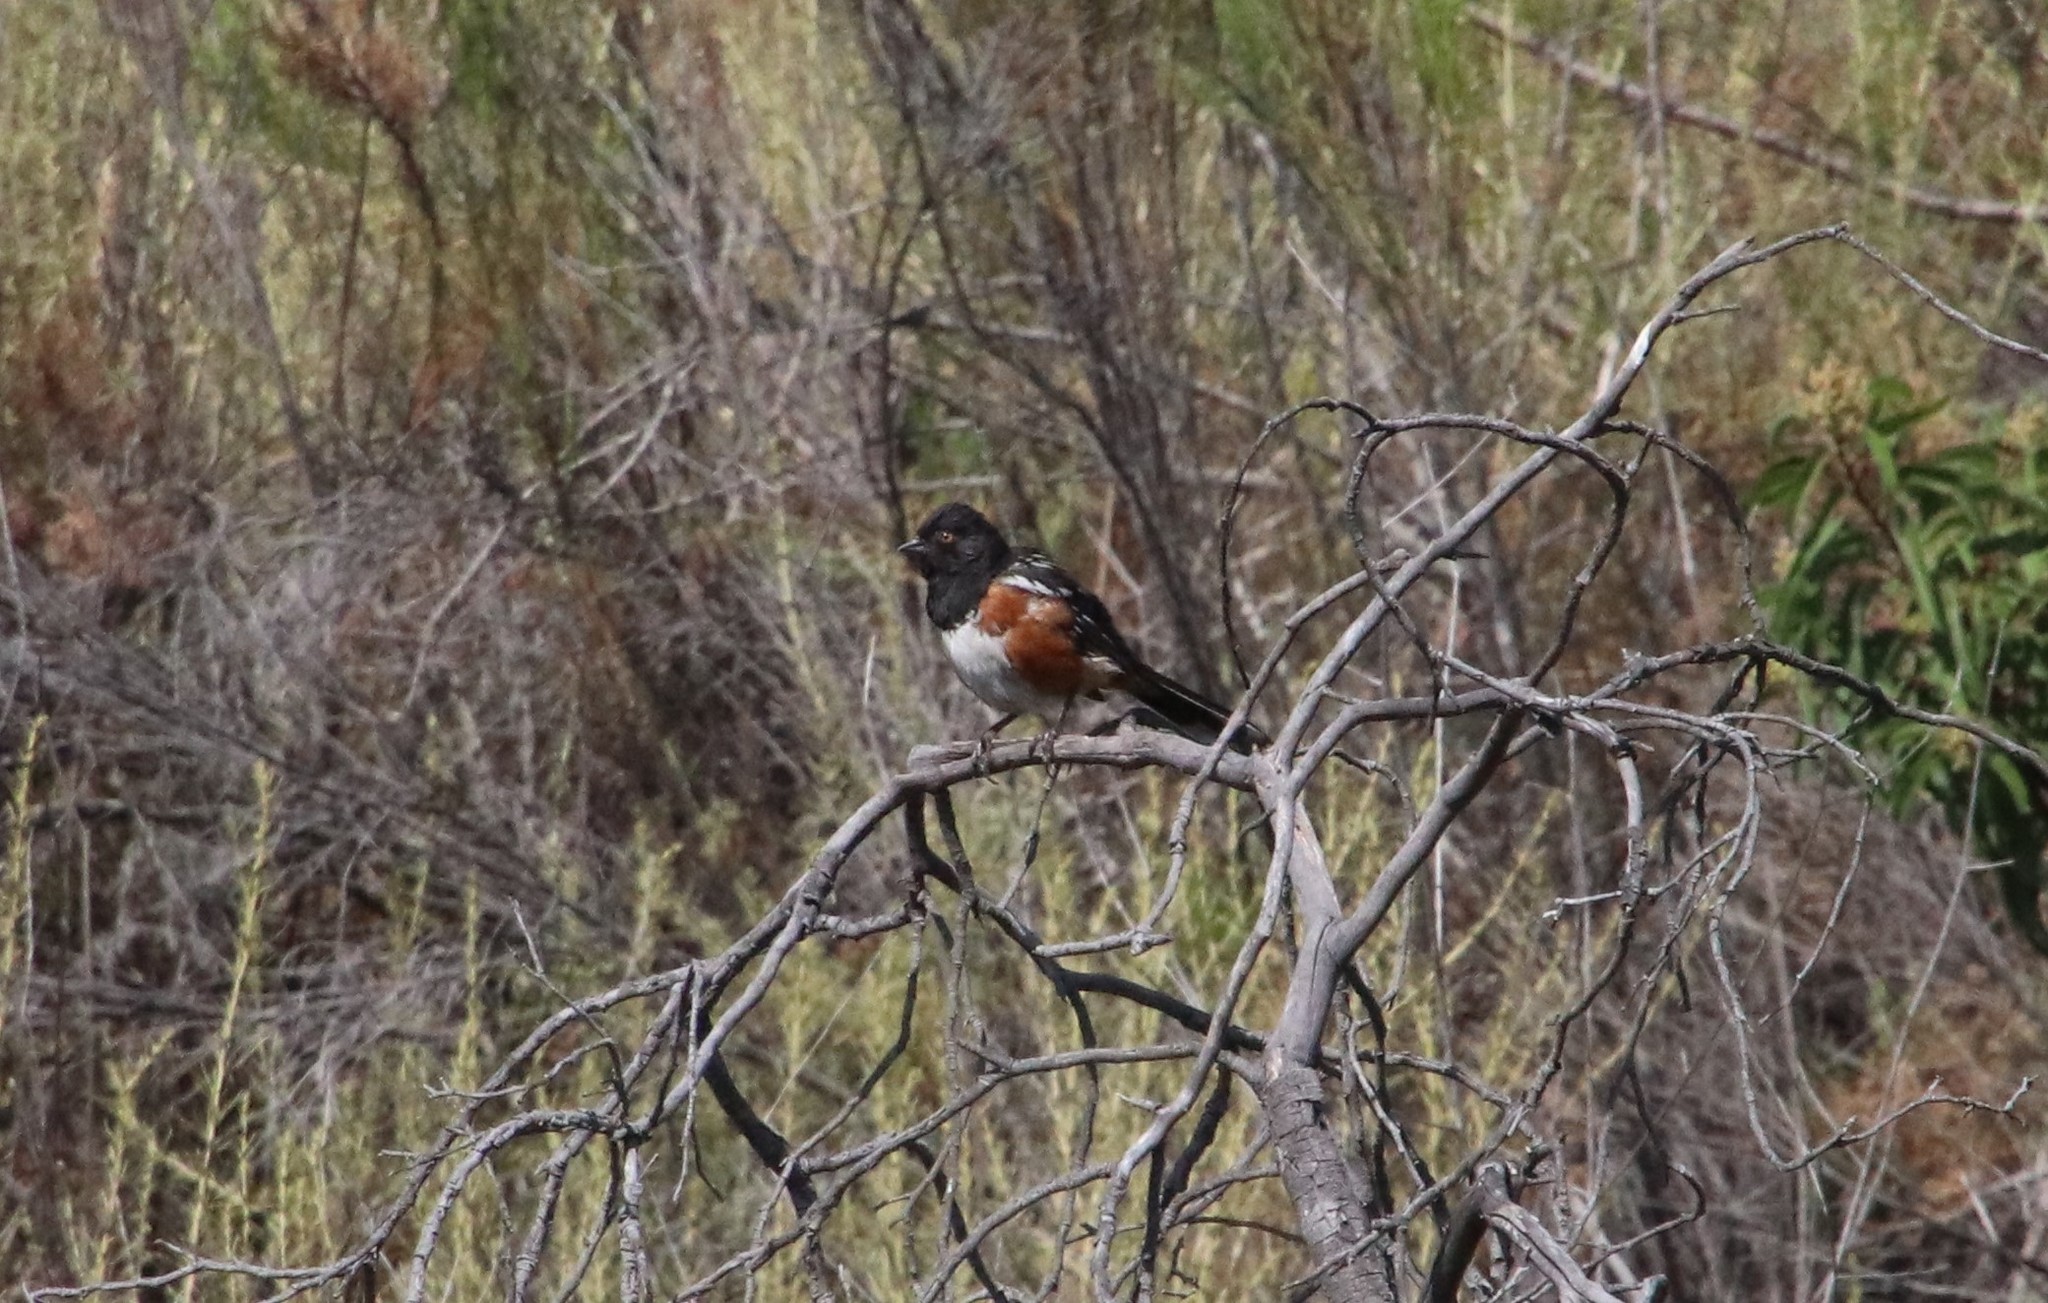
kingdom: Animalia
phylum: Chordata
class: Aves
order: Passeriformes
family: Passerellidae
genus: Pipilo
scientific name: Pipilo maculatus
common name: Spotted towhee
